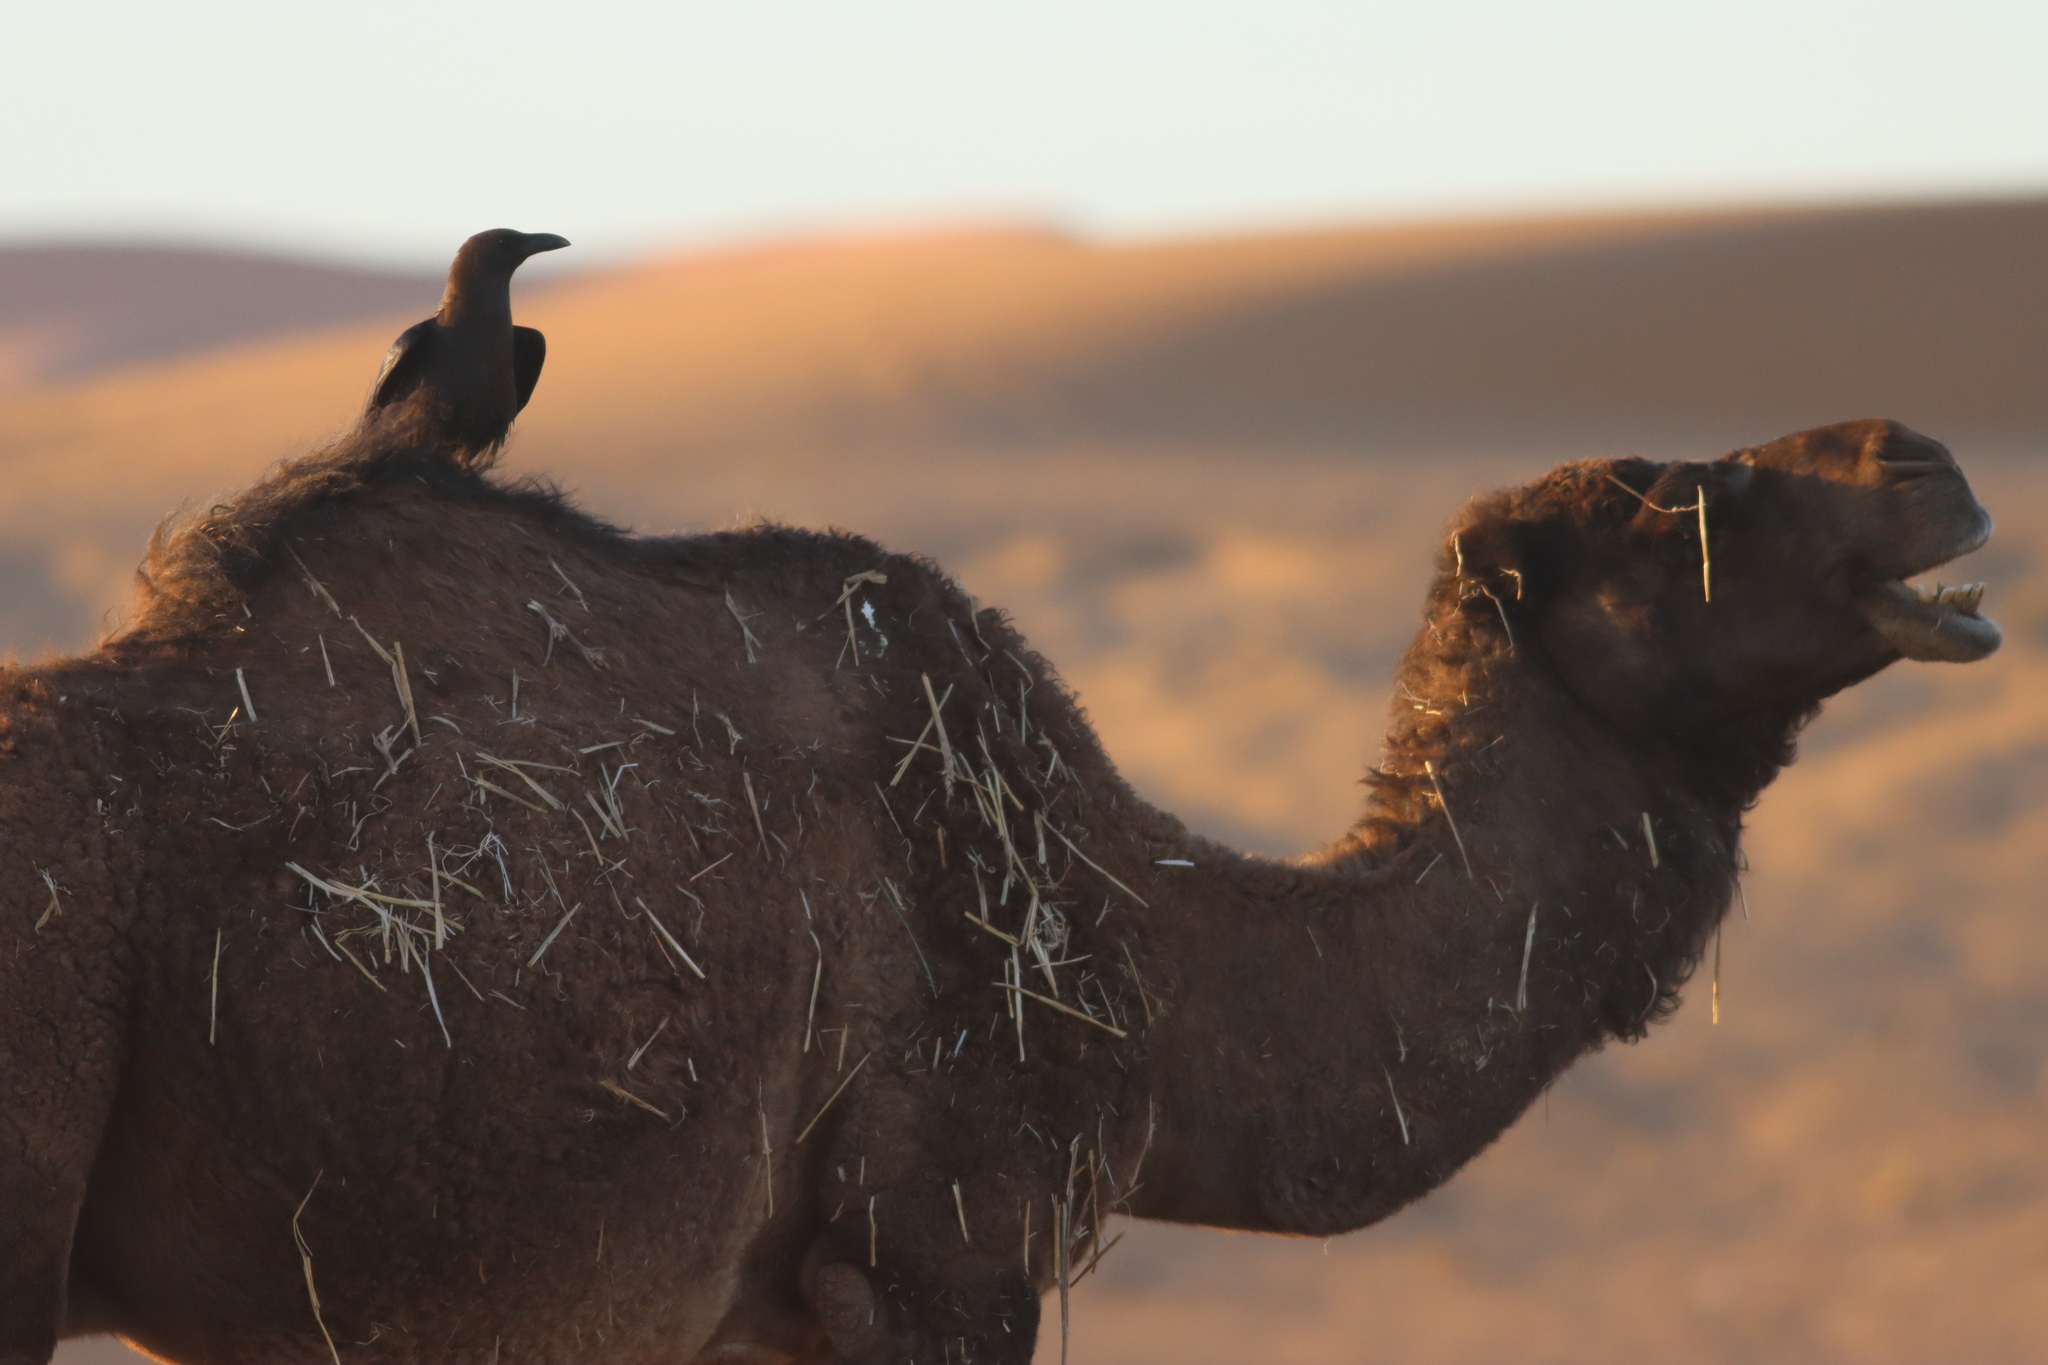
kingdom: Animalia
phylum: Chordata
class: Aves
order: Passeriformes
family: Corvidae
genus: Corvus
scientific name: Corvus ruficollis
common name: Brown-necked raven
